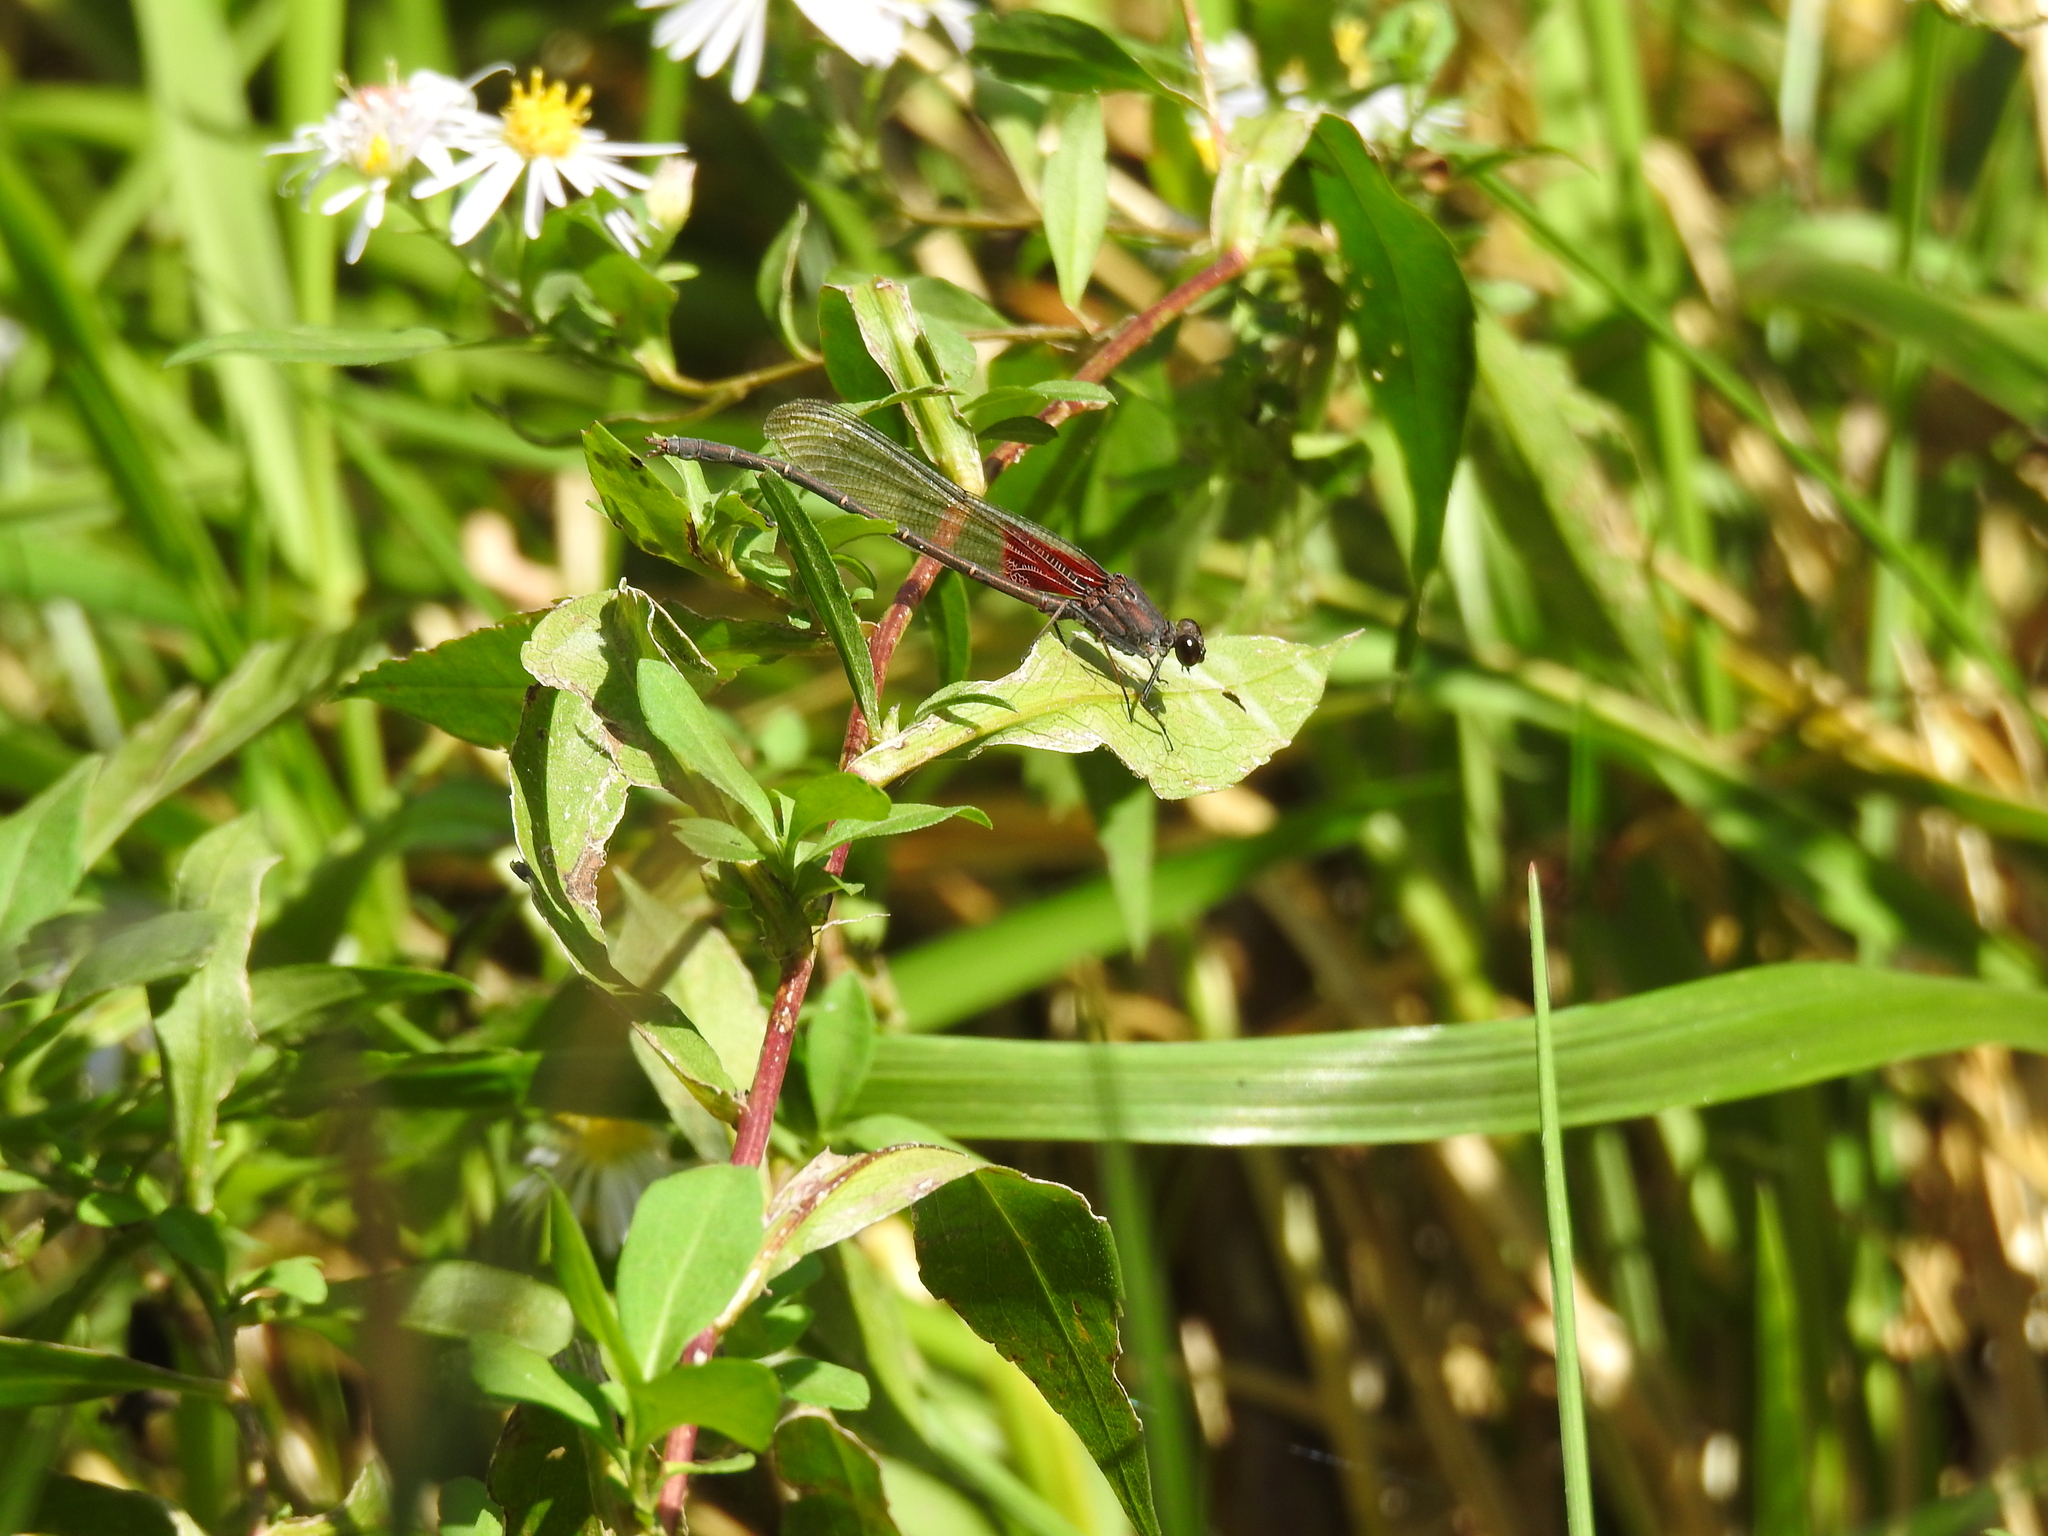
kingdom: Animalia
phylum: Arthropoda
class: Insecta
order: Odonata
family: Calopterygidae
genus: Hetaerina
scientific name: Hetaerina americana
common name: American rubyspot
